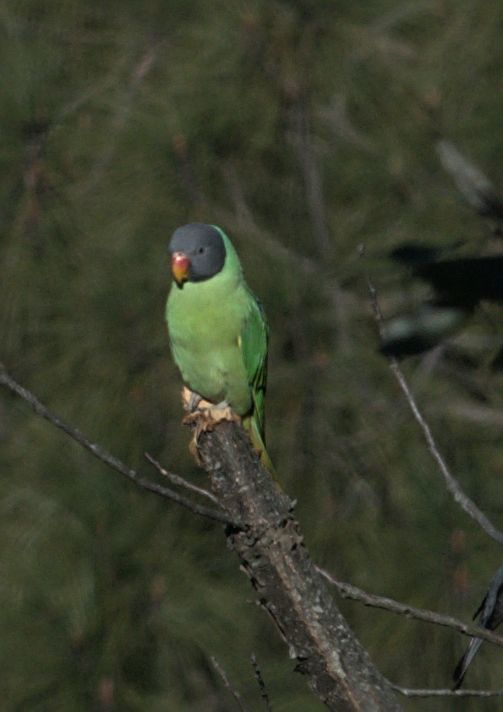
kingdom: Animalia
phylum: Chordata
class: Aves
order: Psittaciformes
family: Psittacidae
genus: Psittacula
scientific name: Psittacula himalayana
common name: Slaty-headed parakeet
